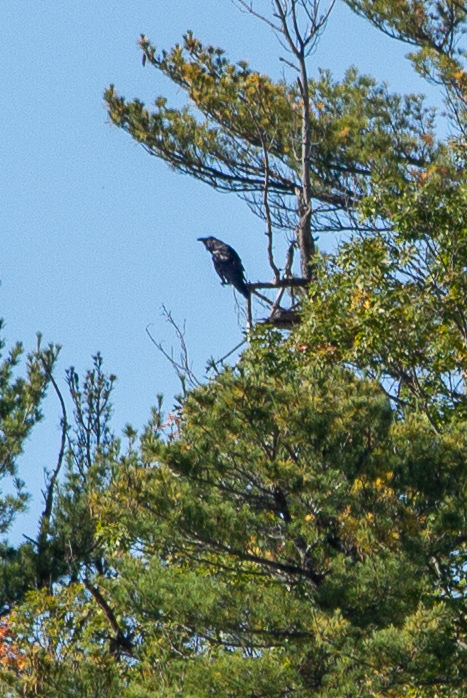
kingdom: Animalia
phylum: Chordata
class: Aves
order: Passeriformes
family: Corvidae
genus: Corvus
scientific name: Corvus corax
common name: Common raven
